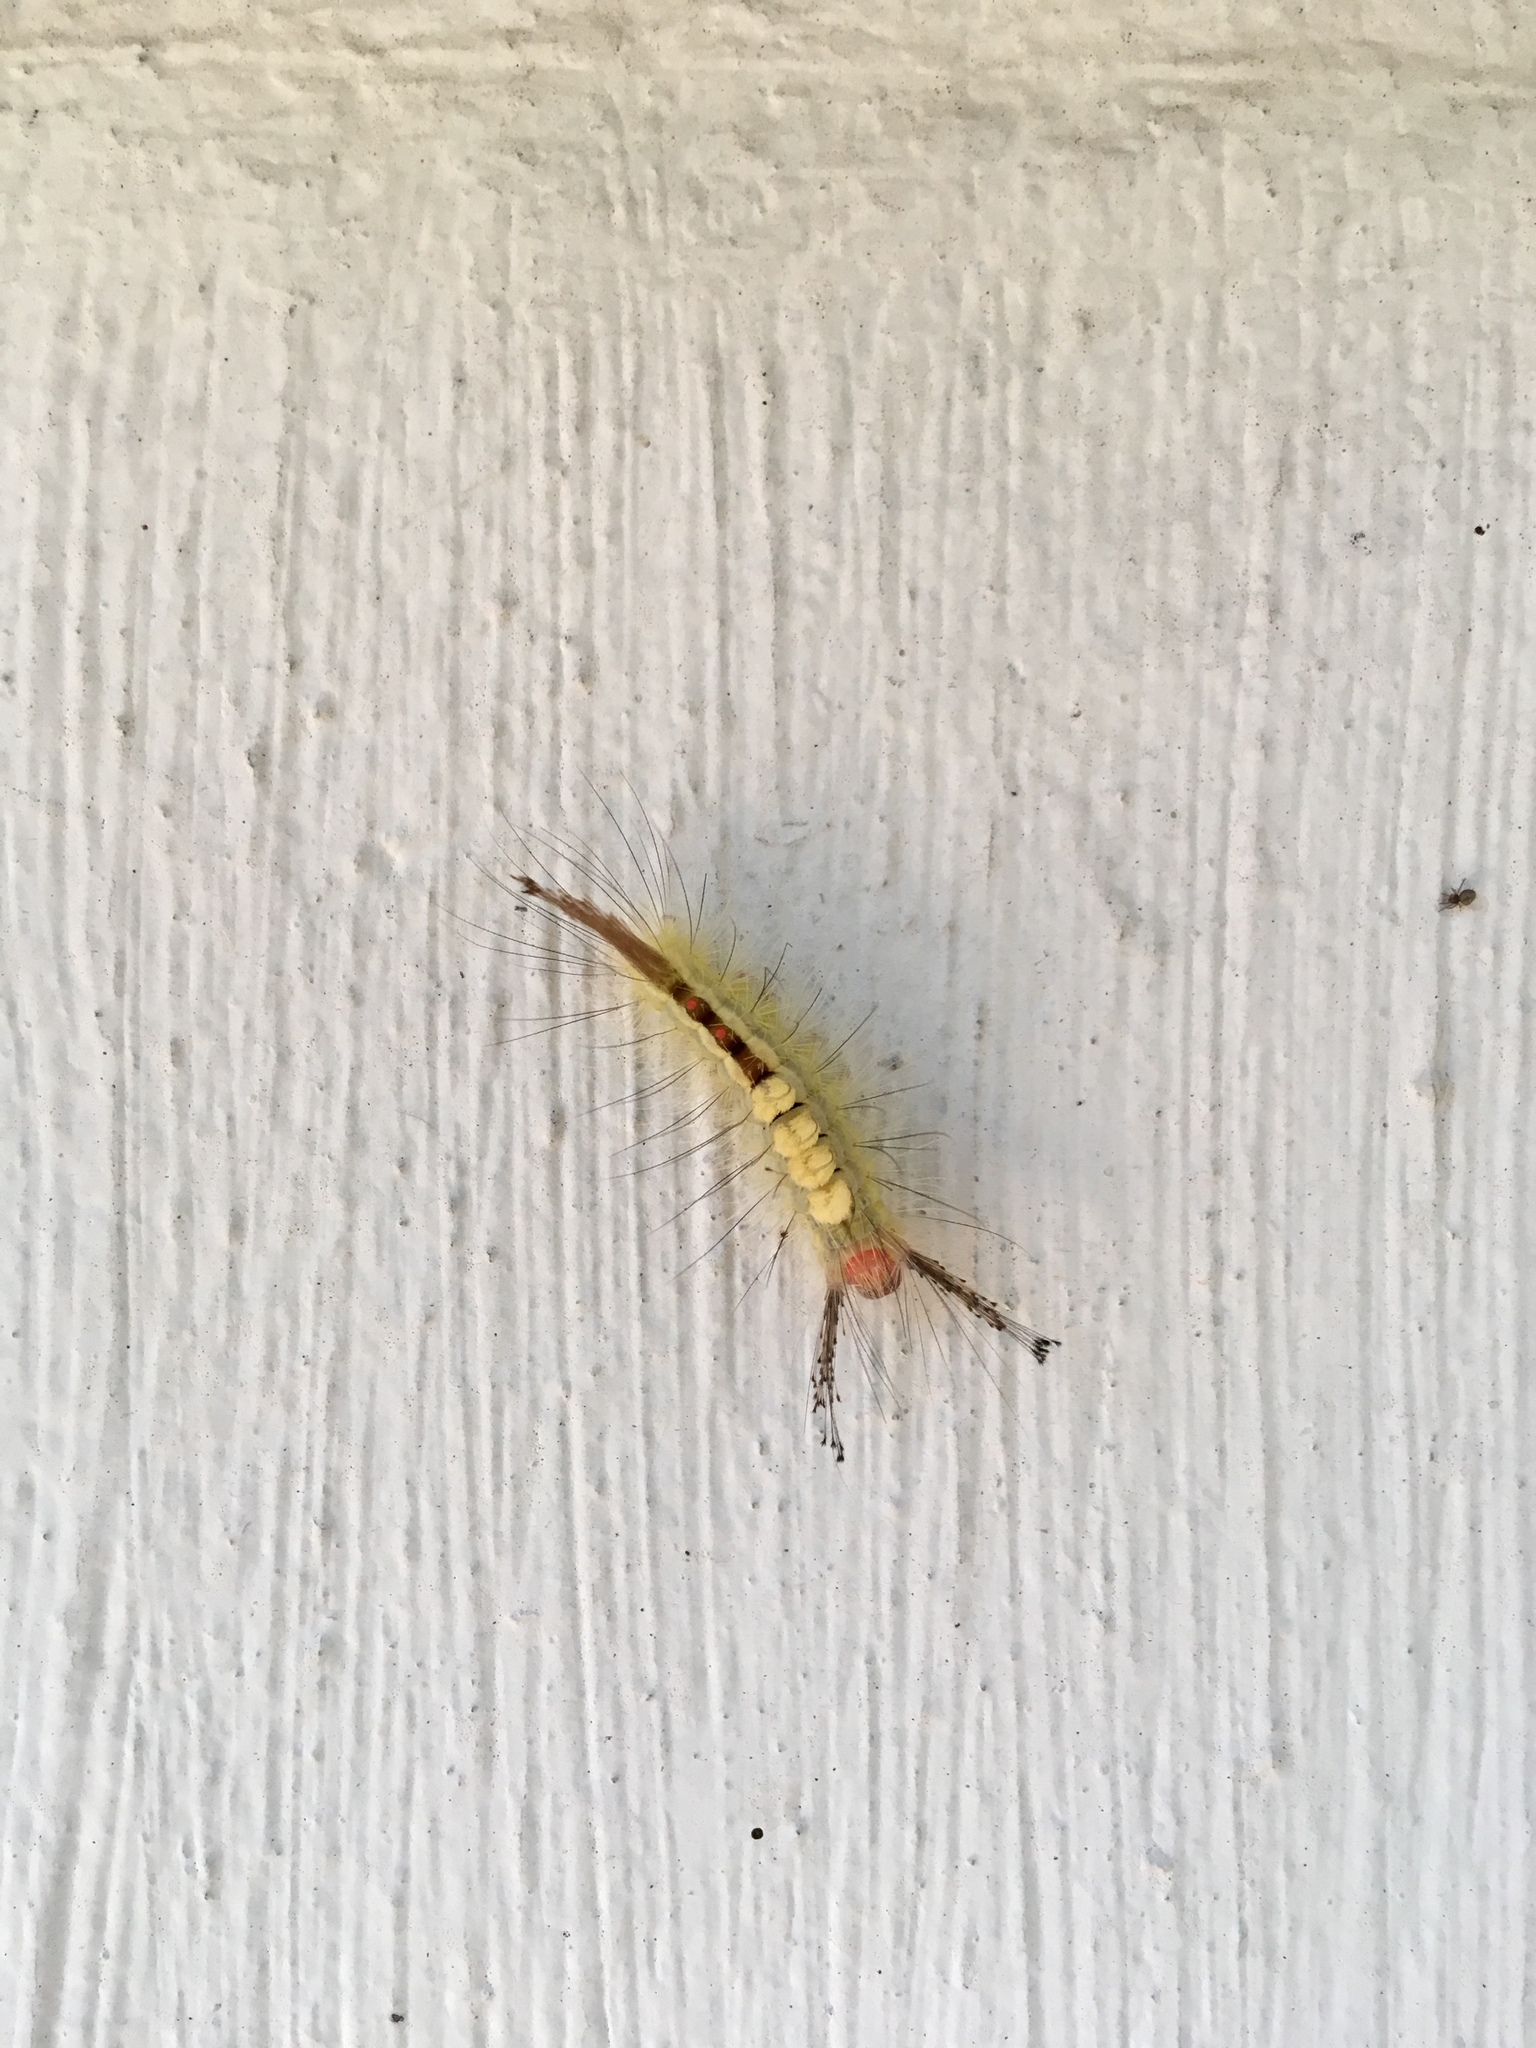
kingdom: Animalia
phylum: Arthropoda
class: Insecta
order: Lepidoptera
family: Erebidae
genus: Orgyia
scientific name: Orgyia leucostigma
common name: White-marked tussock moth
